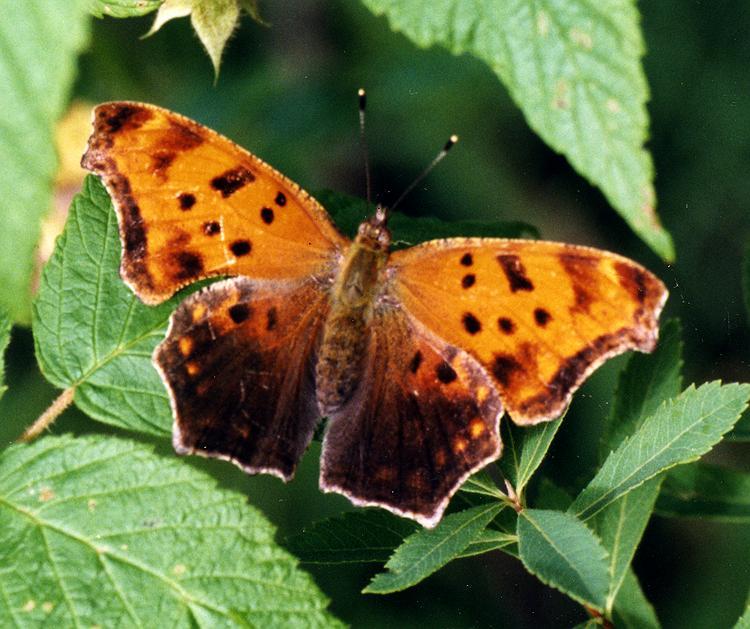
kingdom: Animalia
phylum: Arthropoda
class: Insecta
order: Lepidoptera
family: Nymphalidae
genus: Polygonia
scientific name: Polygonia comma
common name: Eastern comma
